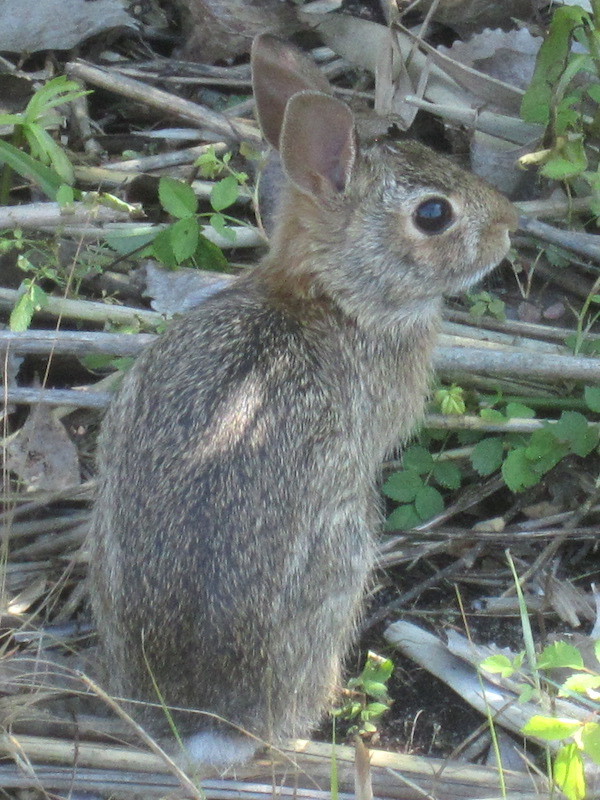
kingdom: Animalia
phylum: Chordata
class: Mammalia
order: Lagomorpha
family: Leporidae
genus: Sylvilagus
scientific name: Sylvilagus floridanus
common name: Eastern cottontail
